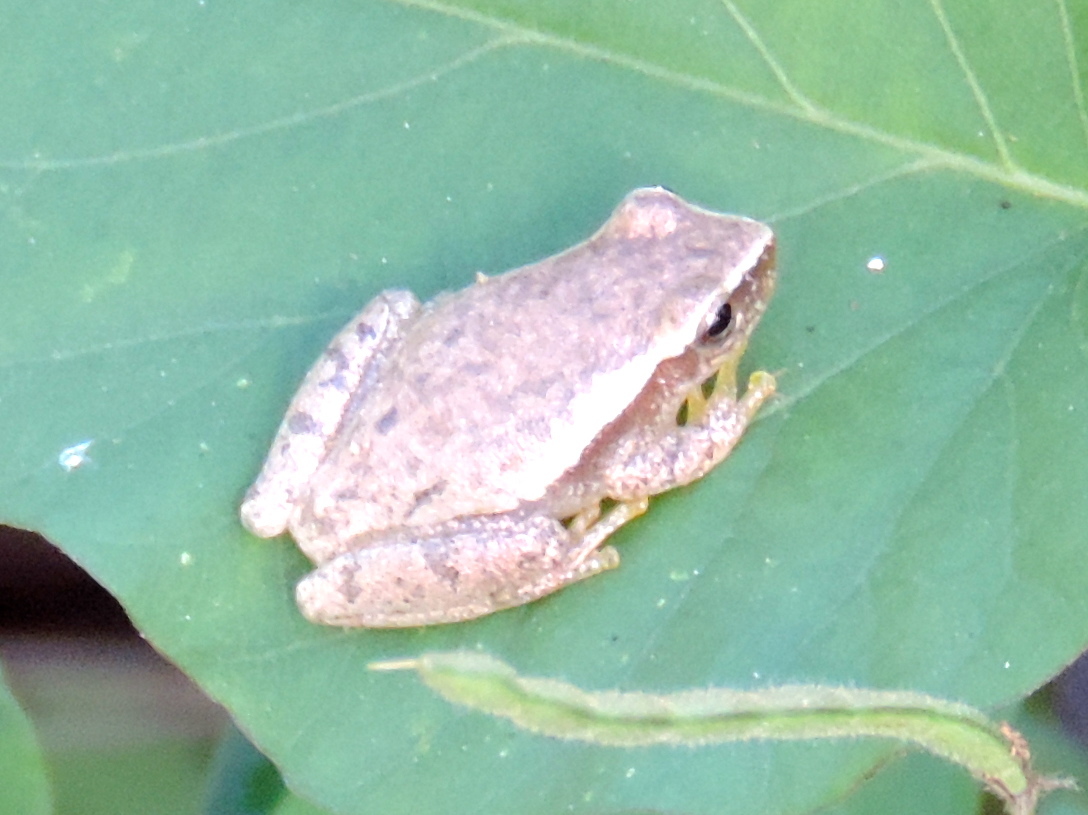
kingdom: Animalia
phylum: Chordata
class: Amphibia
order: Anura
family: Hylidae
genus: Tlalocohyla
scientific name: Tlalocohyla smithii
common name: Dwarf mexican treefrog
